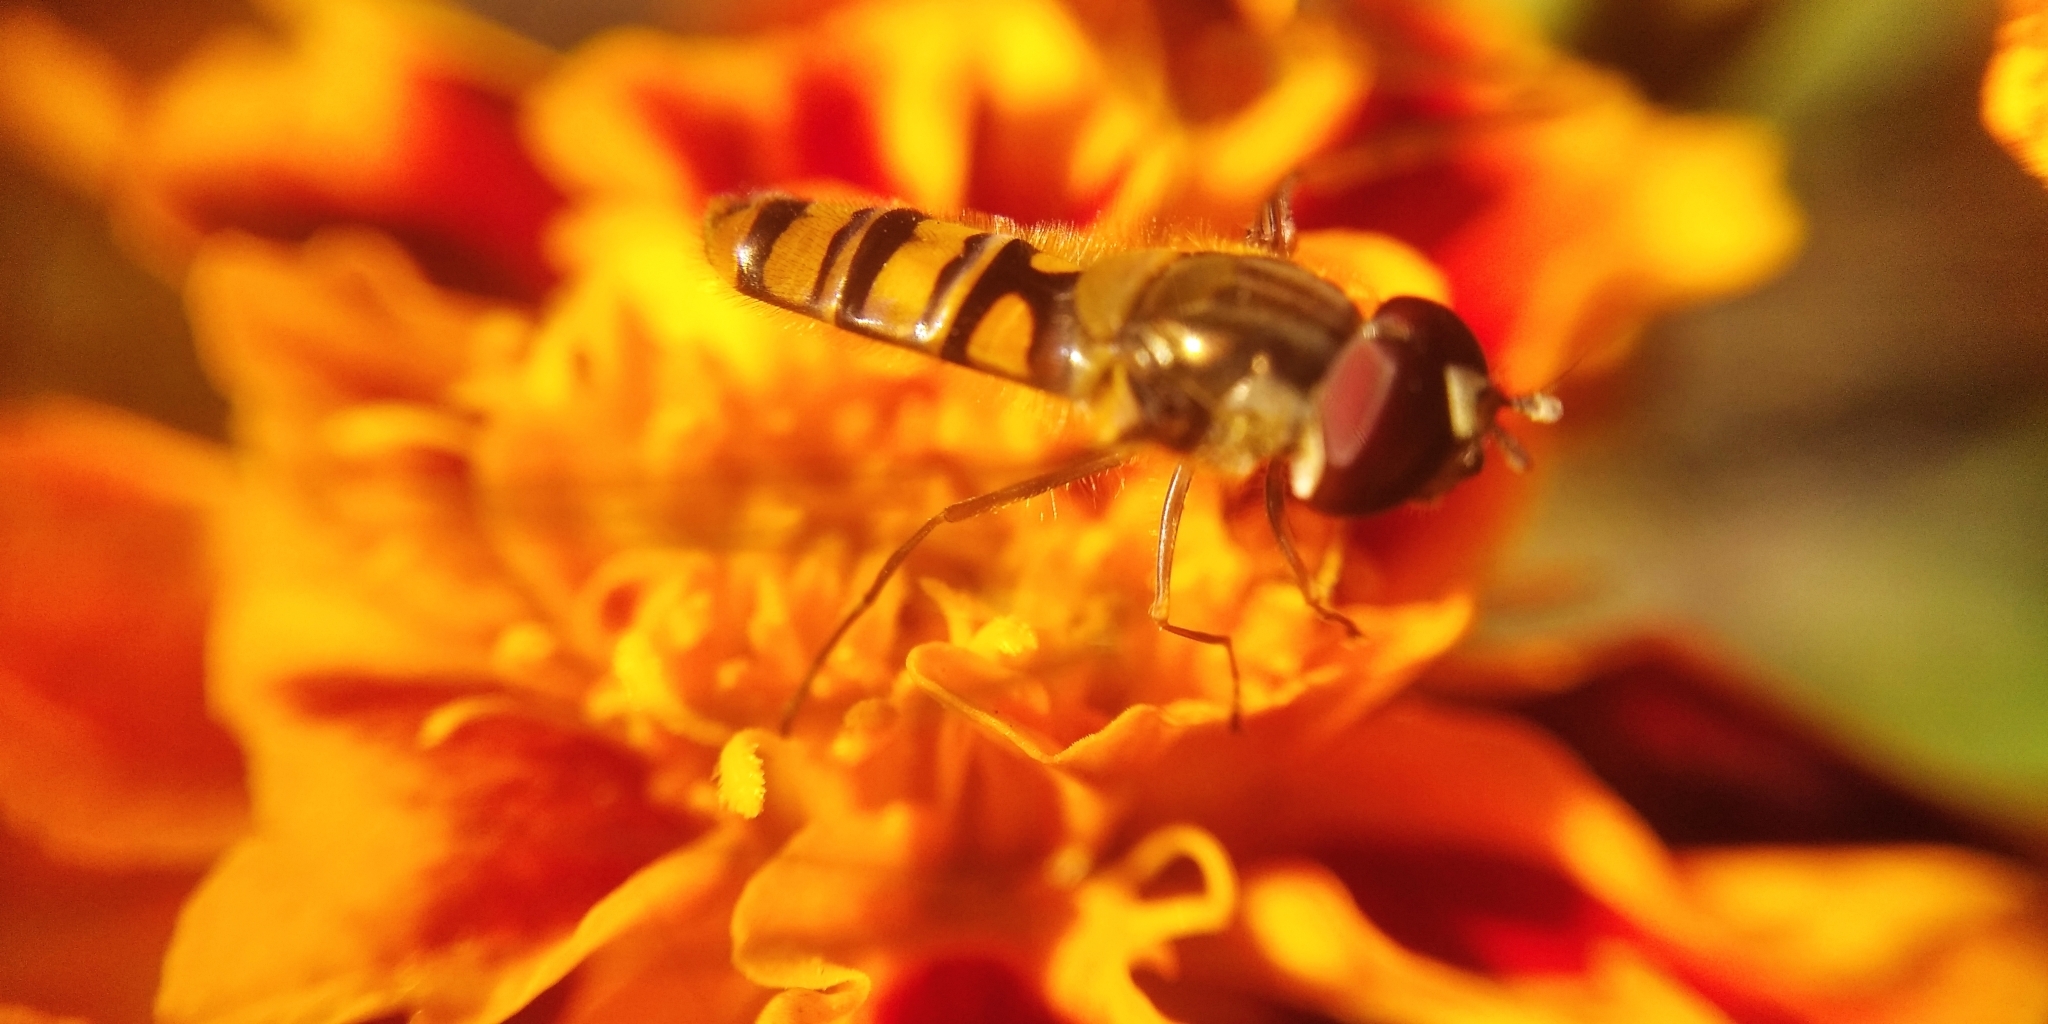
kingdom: Animalia
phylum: Arthropoda
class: Insecta
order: Diptera
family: Syrphidae
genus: Episyrphus
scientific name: Episyrphus balteatus
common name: Marmalade hoverfly
